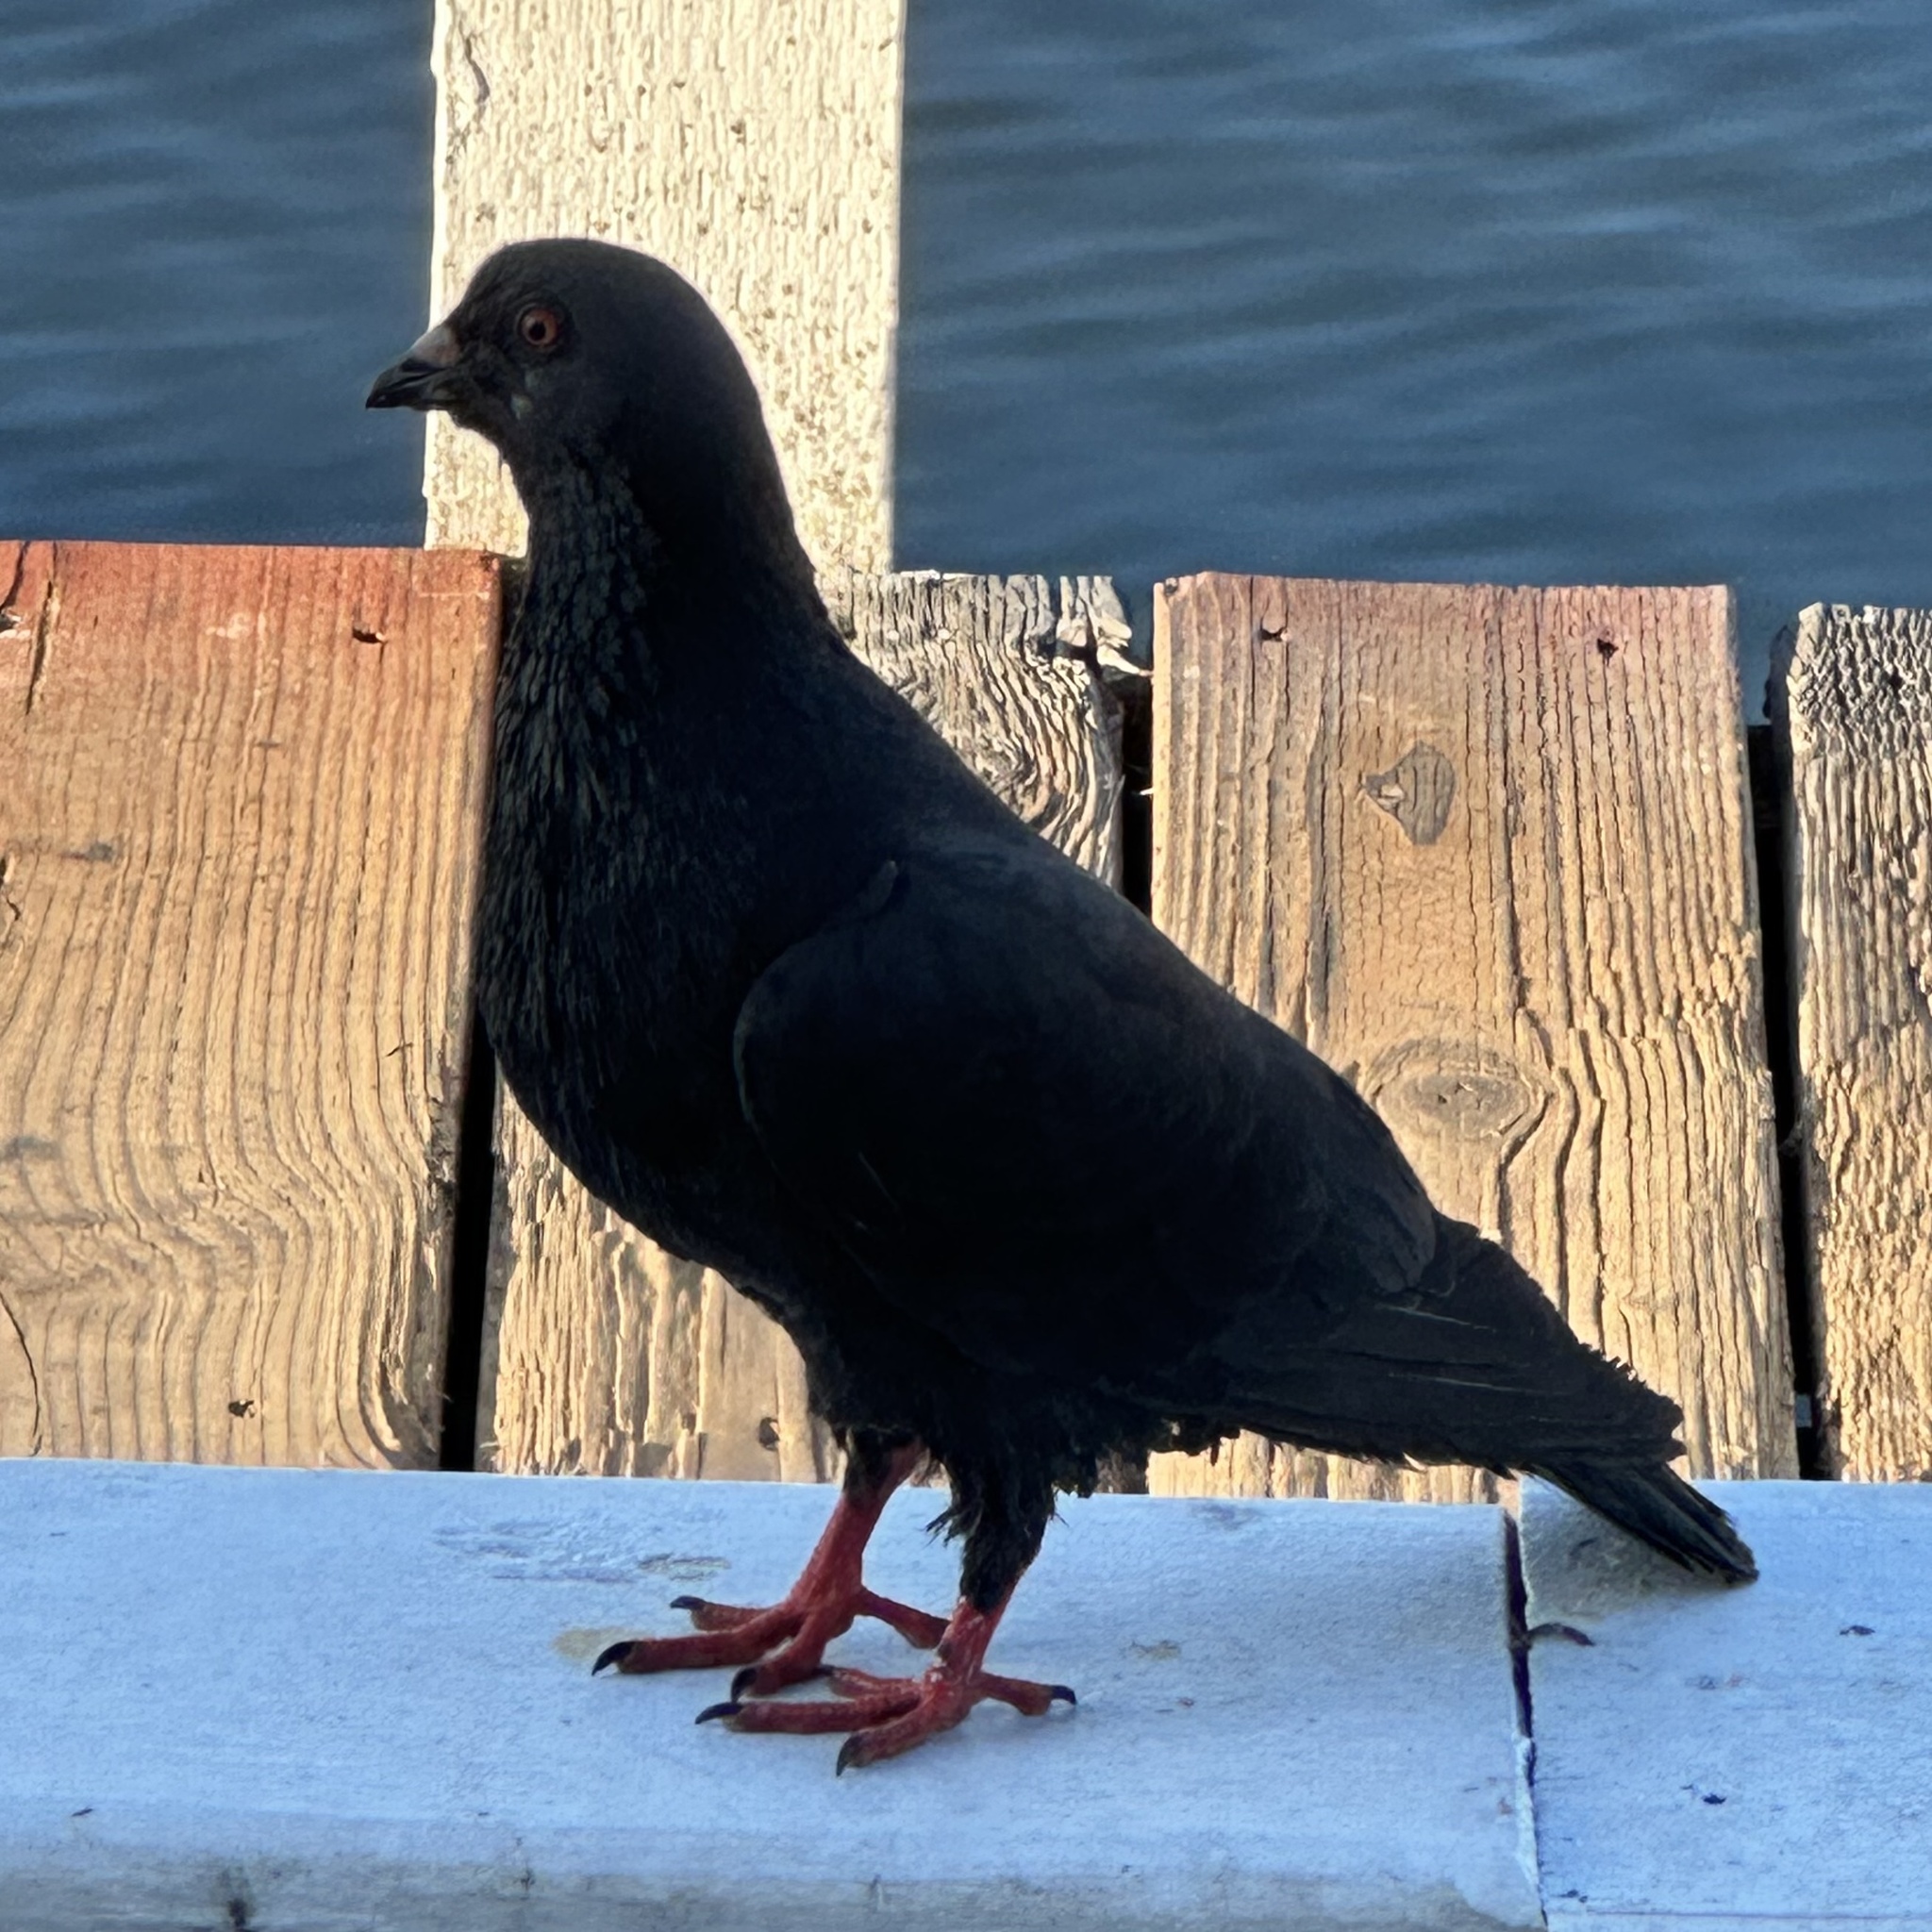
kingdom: Animalia
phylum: Chordata
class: Aves
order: Columbiformes
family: Columbidae
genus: Columba
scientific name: Columba livia
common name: Rock pigeon
